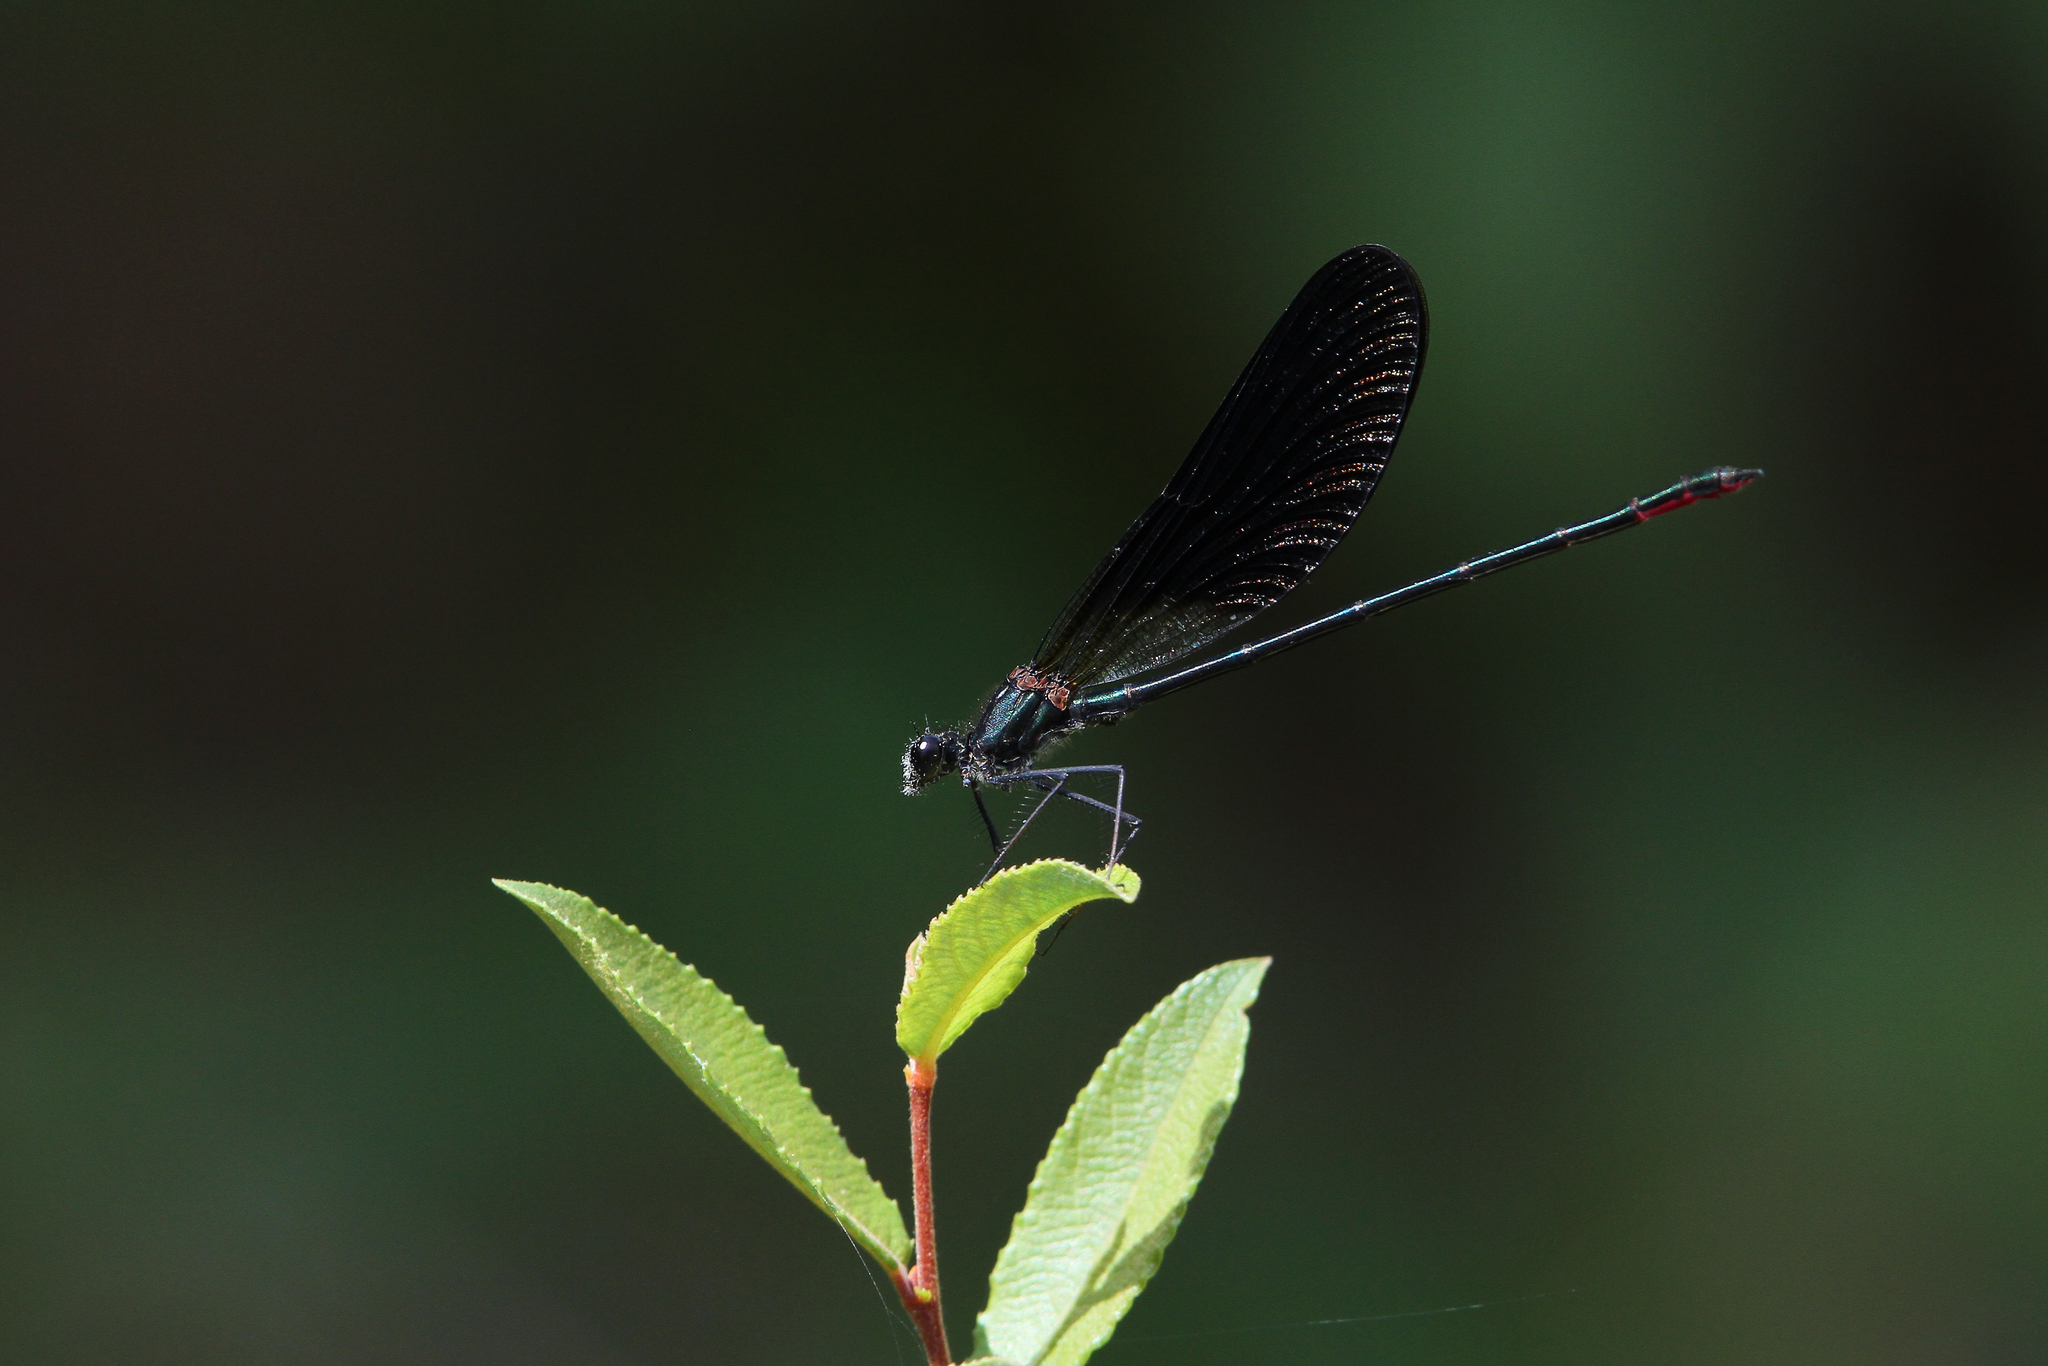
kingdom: Animalia
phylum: Arthropoda
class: Insecta
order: Odonata
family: Calopterygidae
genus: Calopteryx
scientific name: Calopteryx haemorrhoidalis
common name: Copper demoiselle
